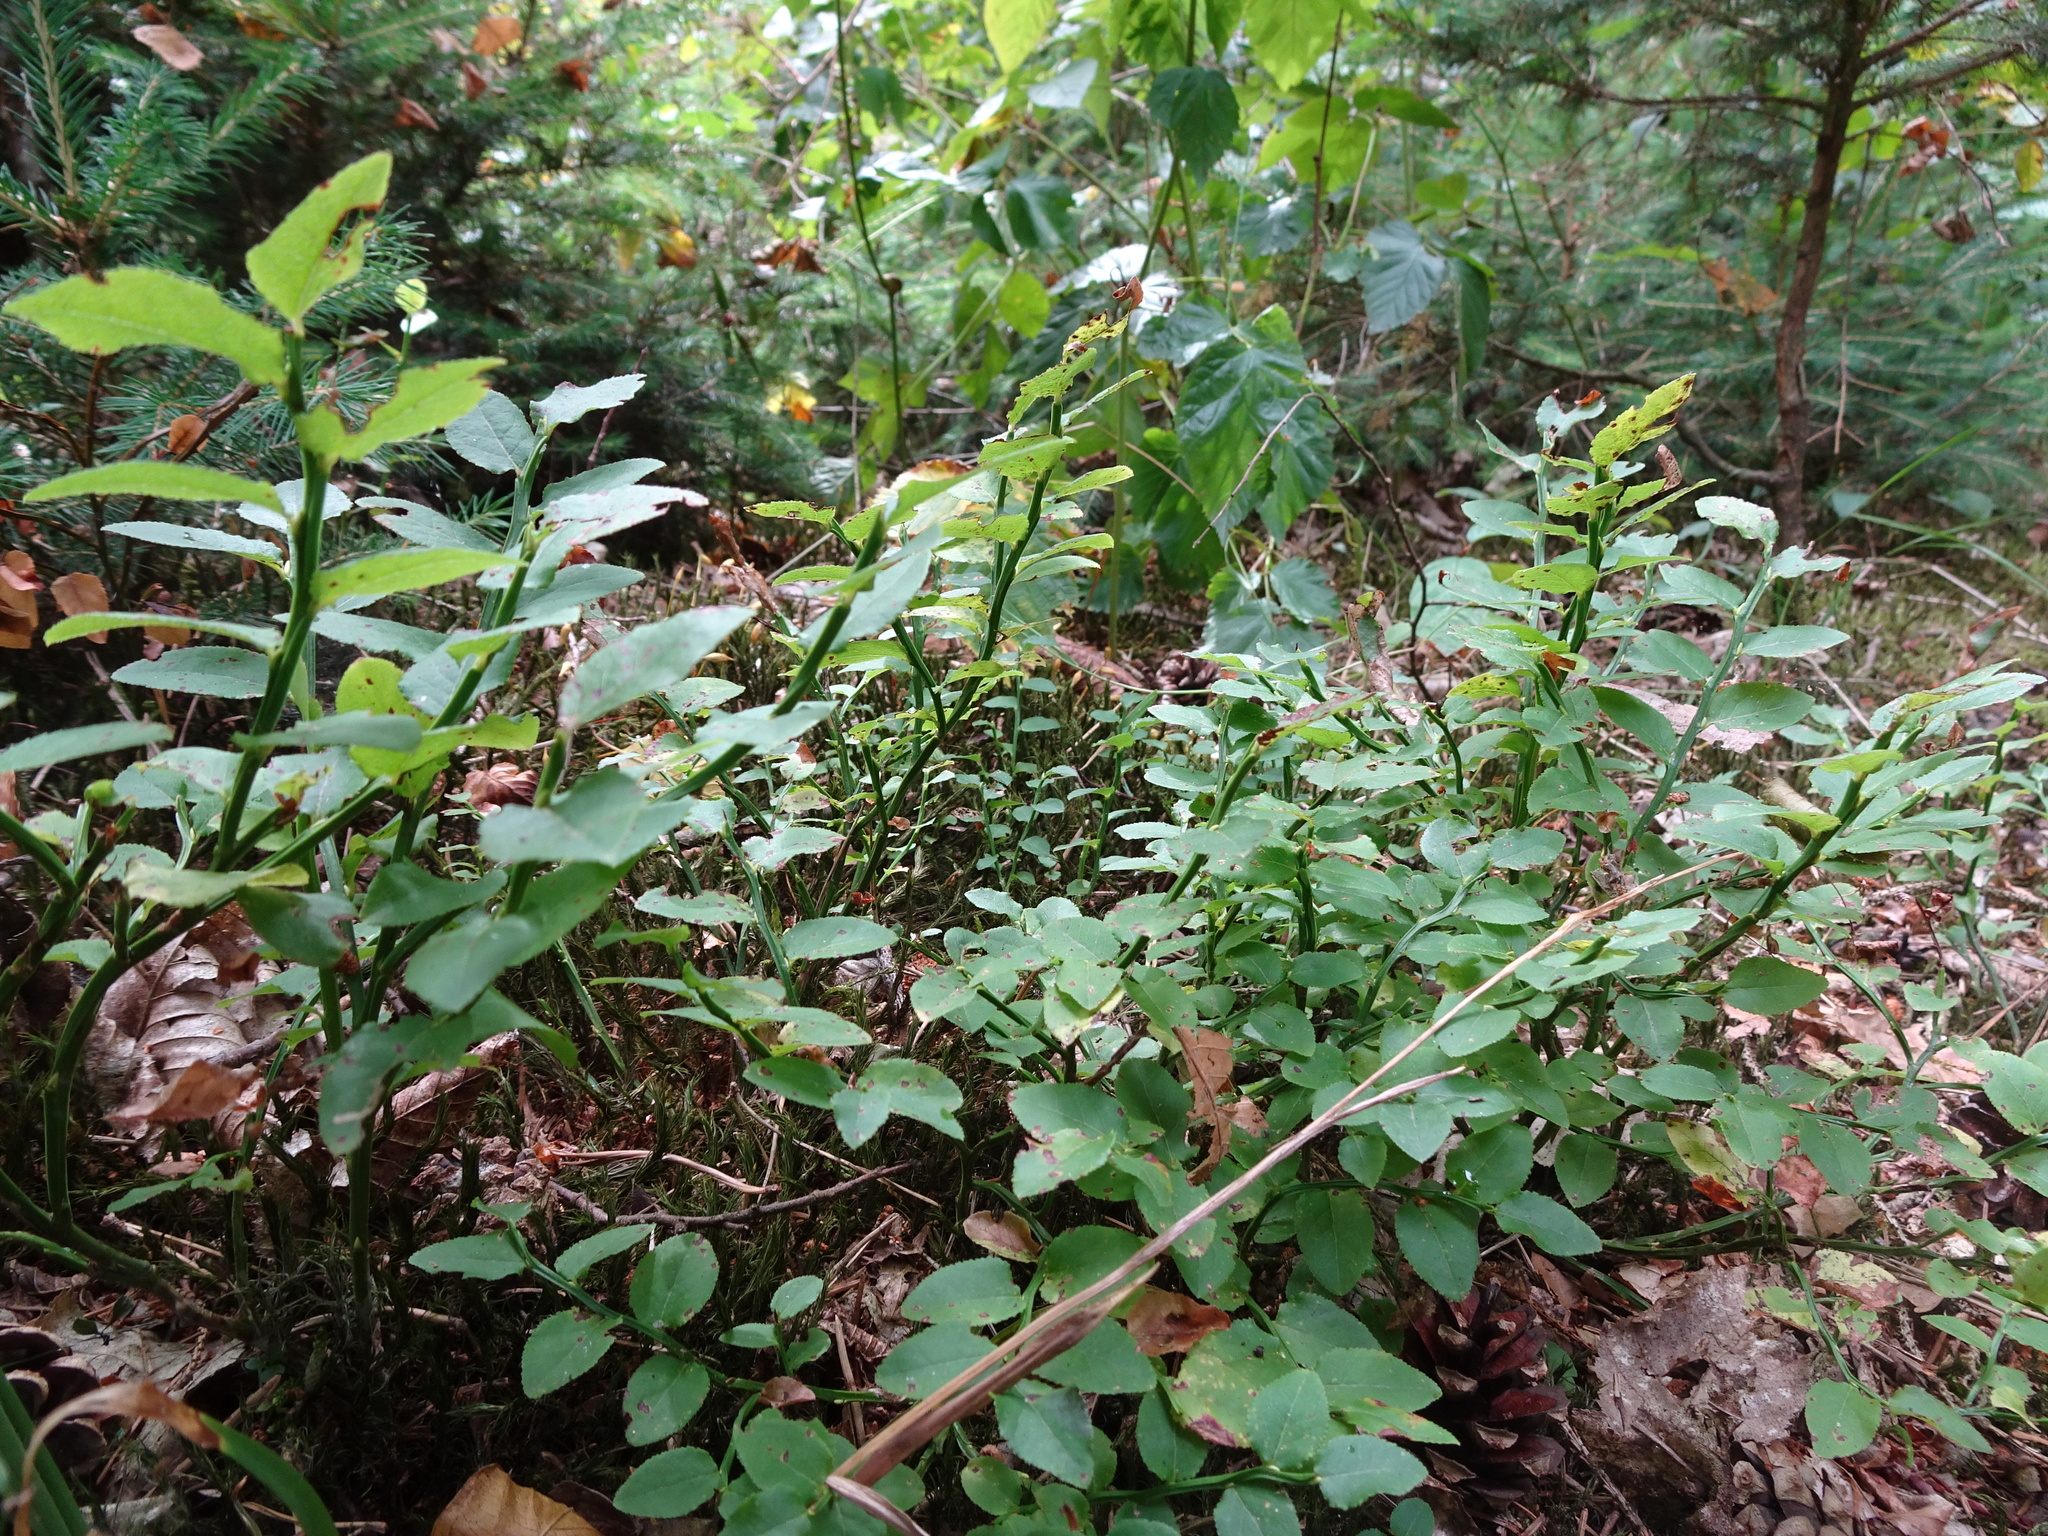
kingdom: Plantae
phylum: Tracheophyta
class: Magnoliopsida
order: Ericales
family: Ericaceae
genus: Vaccinium
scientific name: Vaccinium myrtillus
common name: Bilberry
